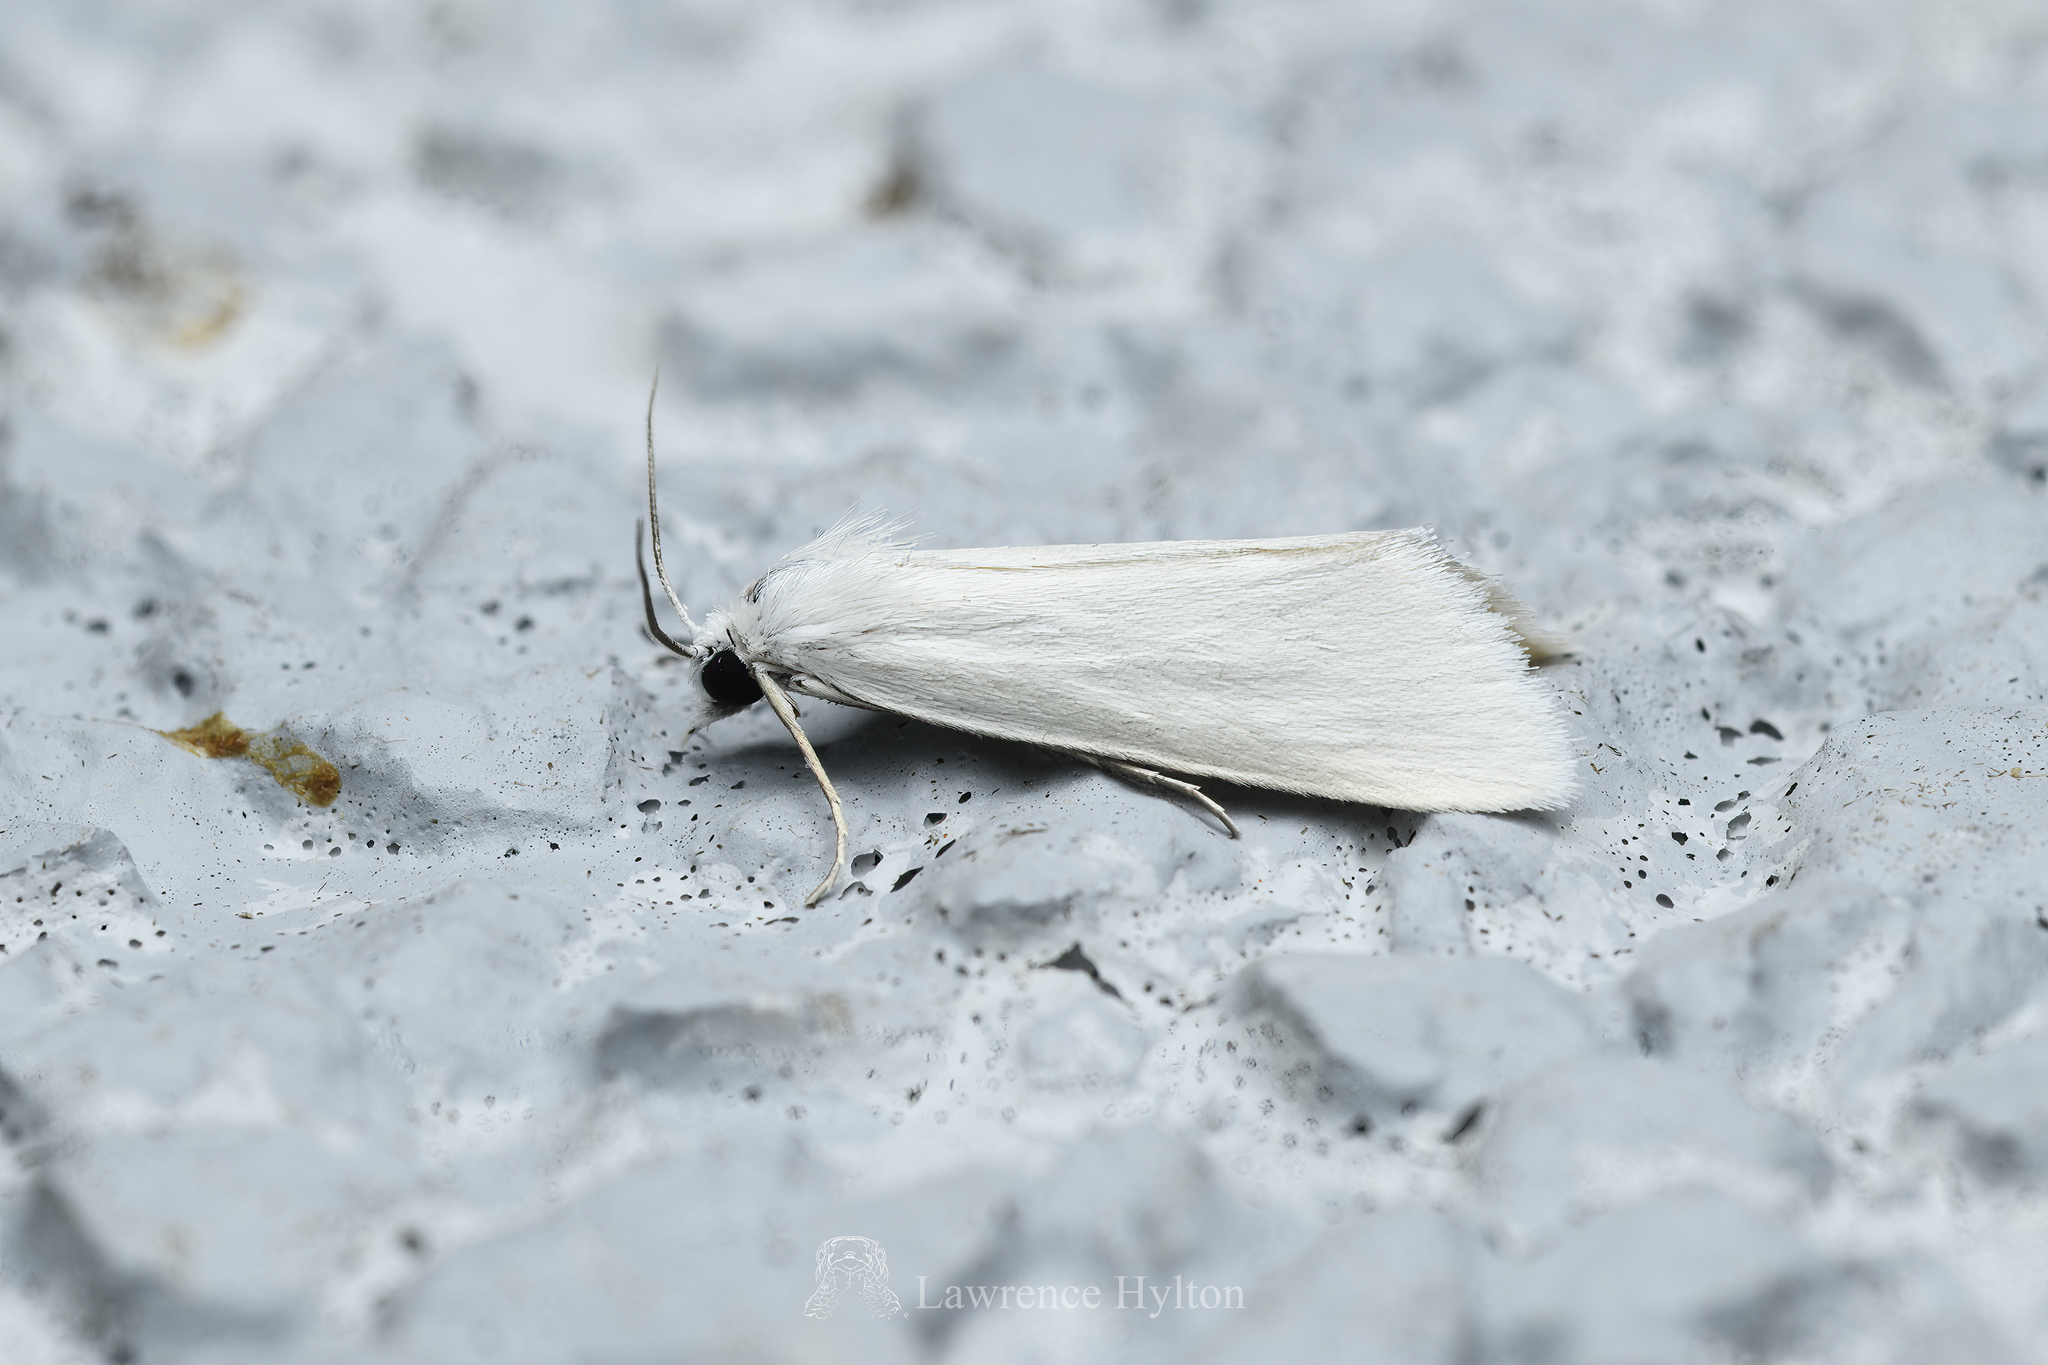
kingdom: Animalia
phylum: Arthropoda
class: Insecta
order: Lepidoptera
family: Crambidae
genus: Scirpophaga
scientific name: Scirpophaga praelata
